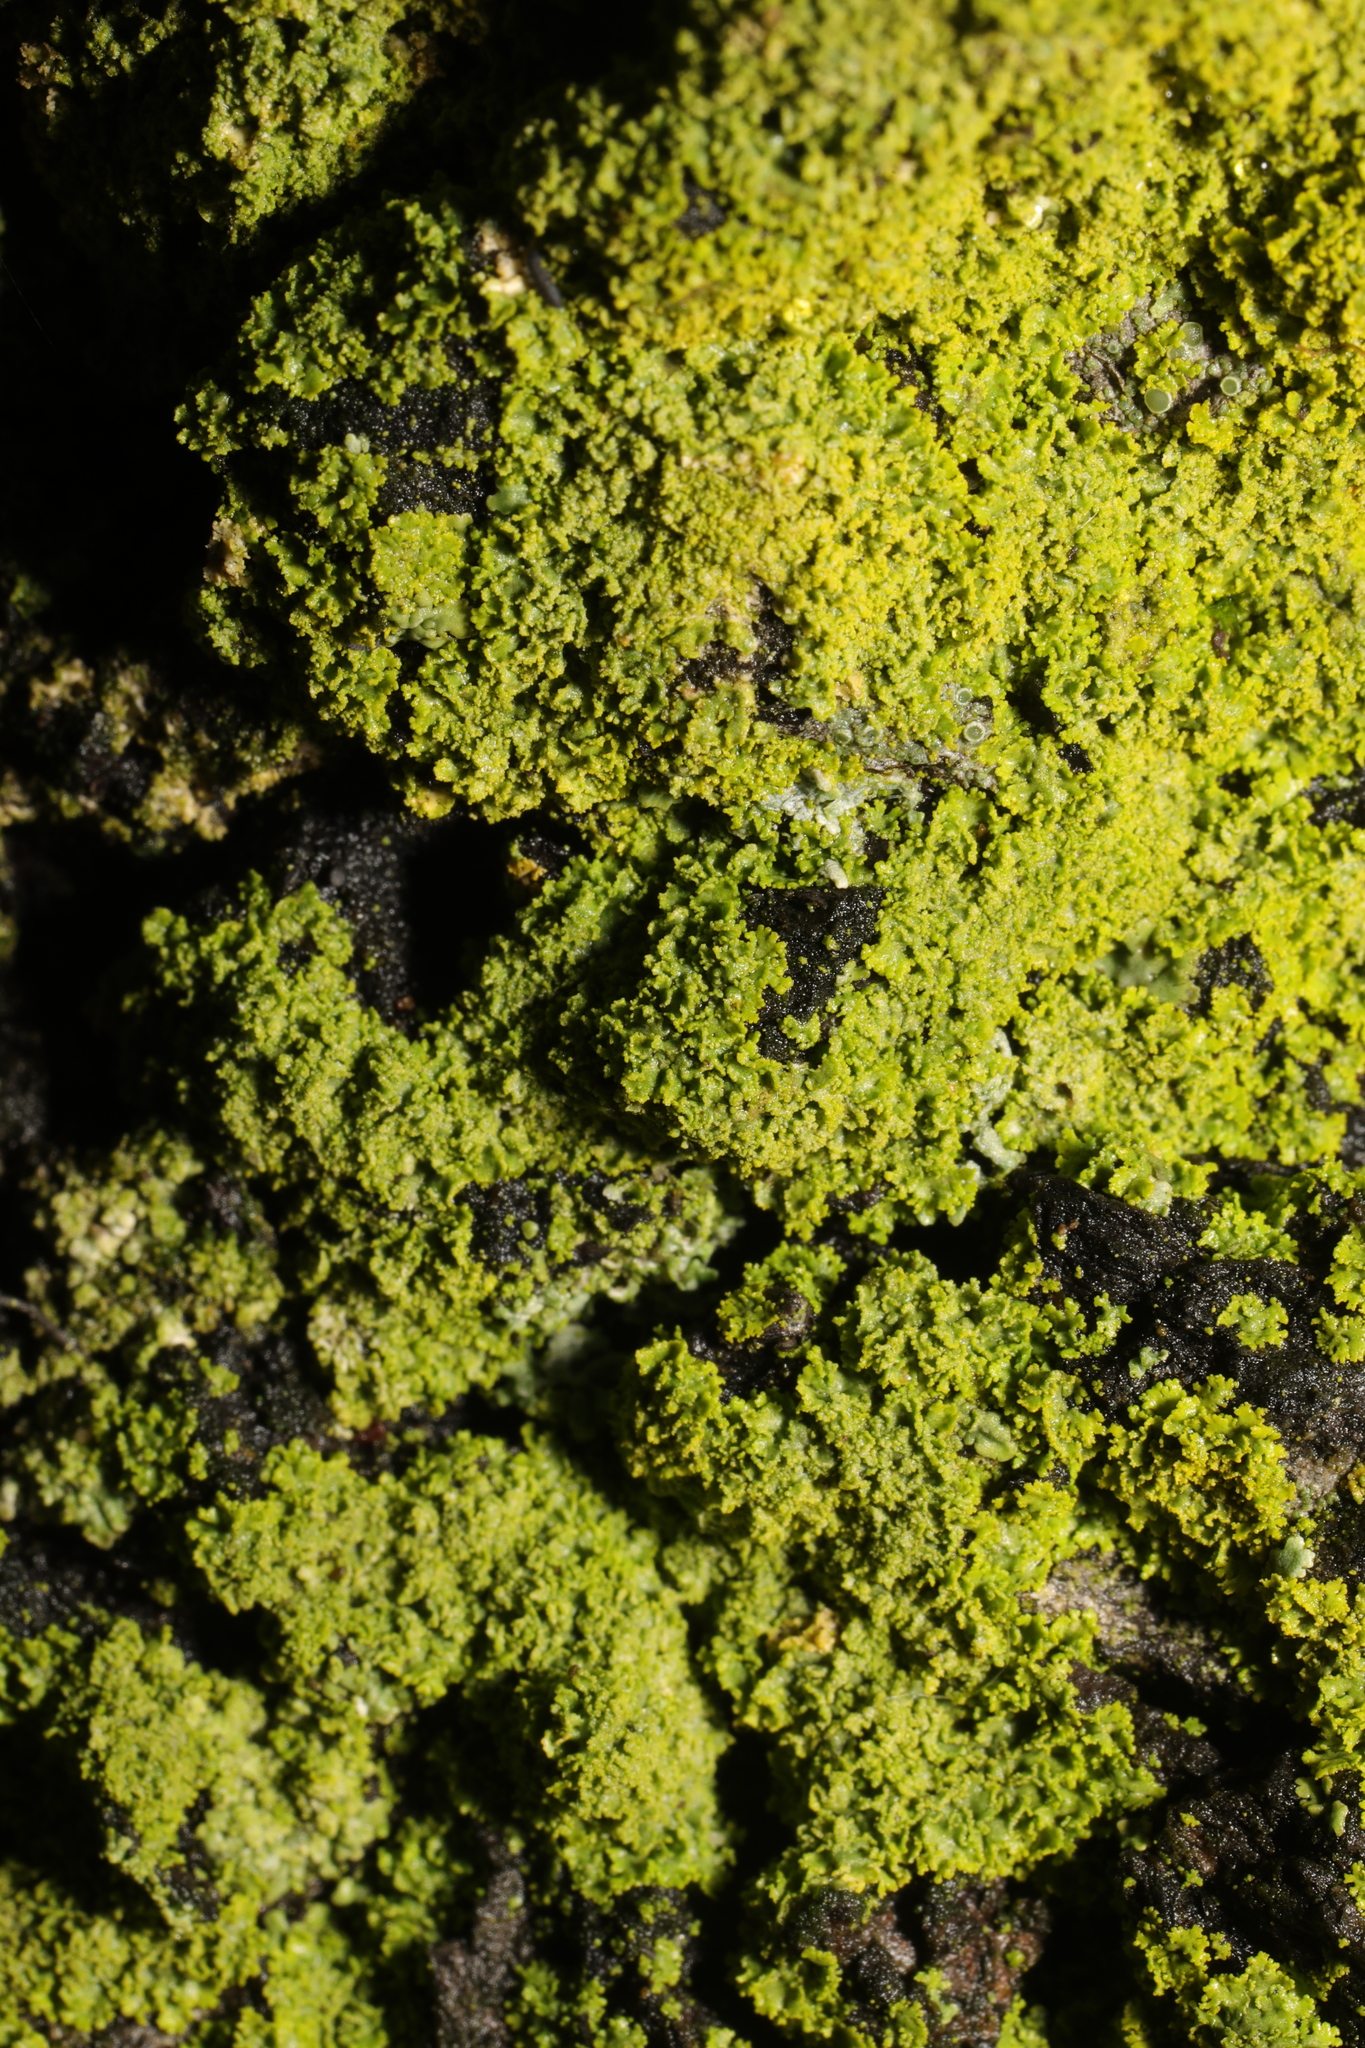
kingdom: Fungi
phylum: Ascomycota
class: Candelariomycetes
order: Candelariales
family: Candelariaceae
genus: Candelaria
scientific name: Candelaria concolor
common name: Candleflame lichen
